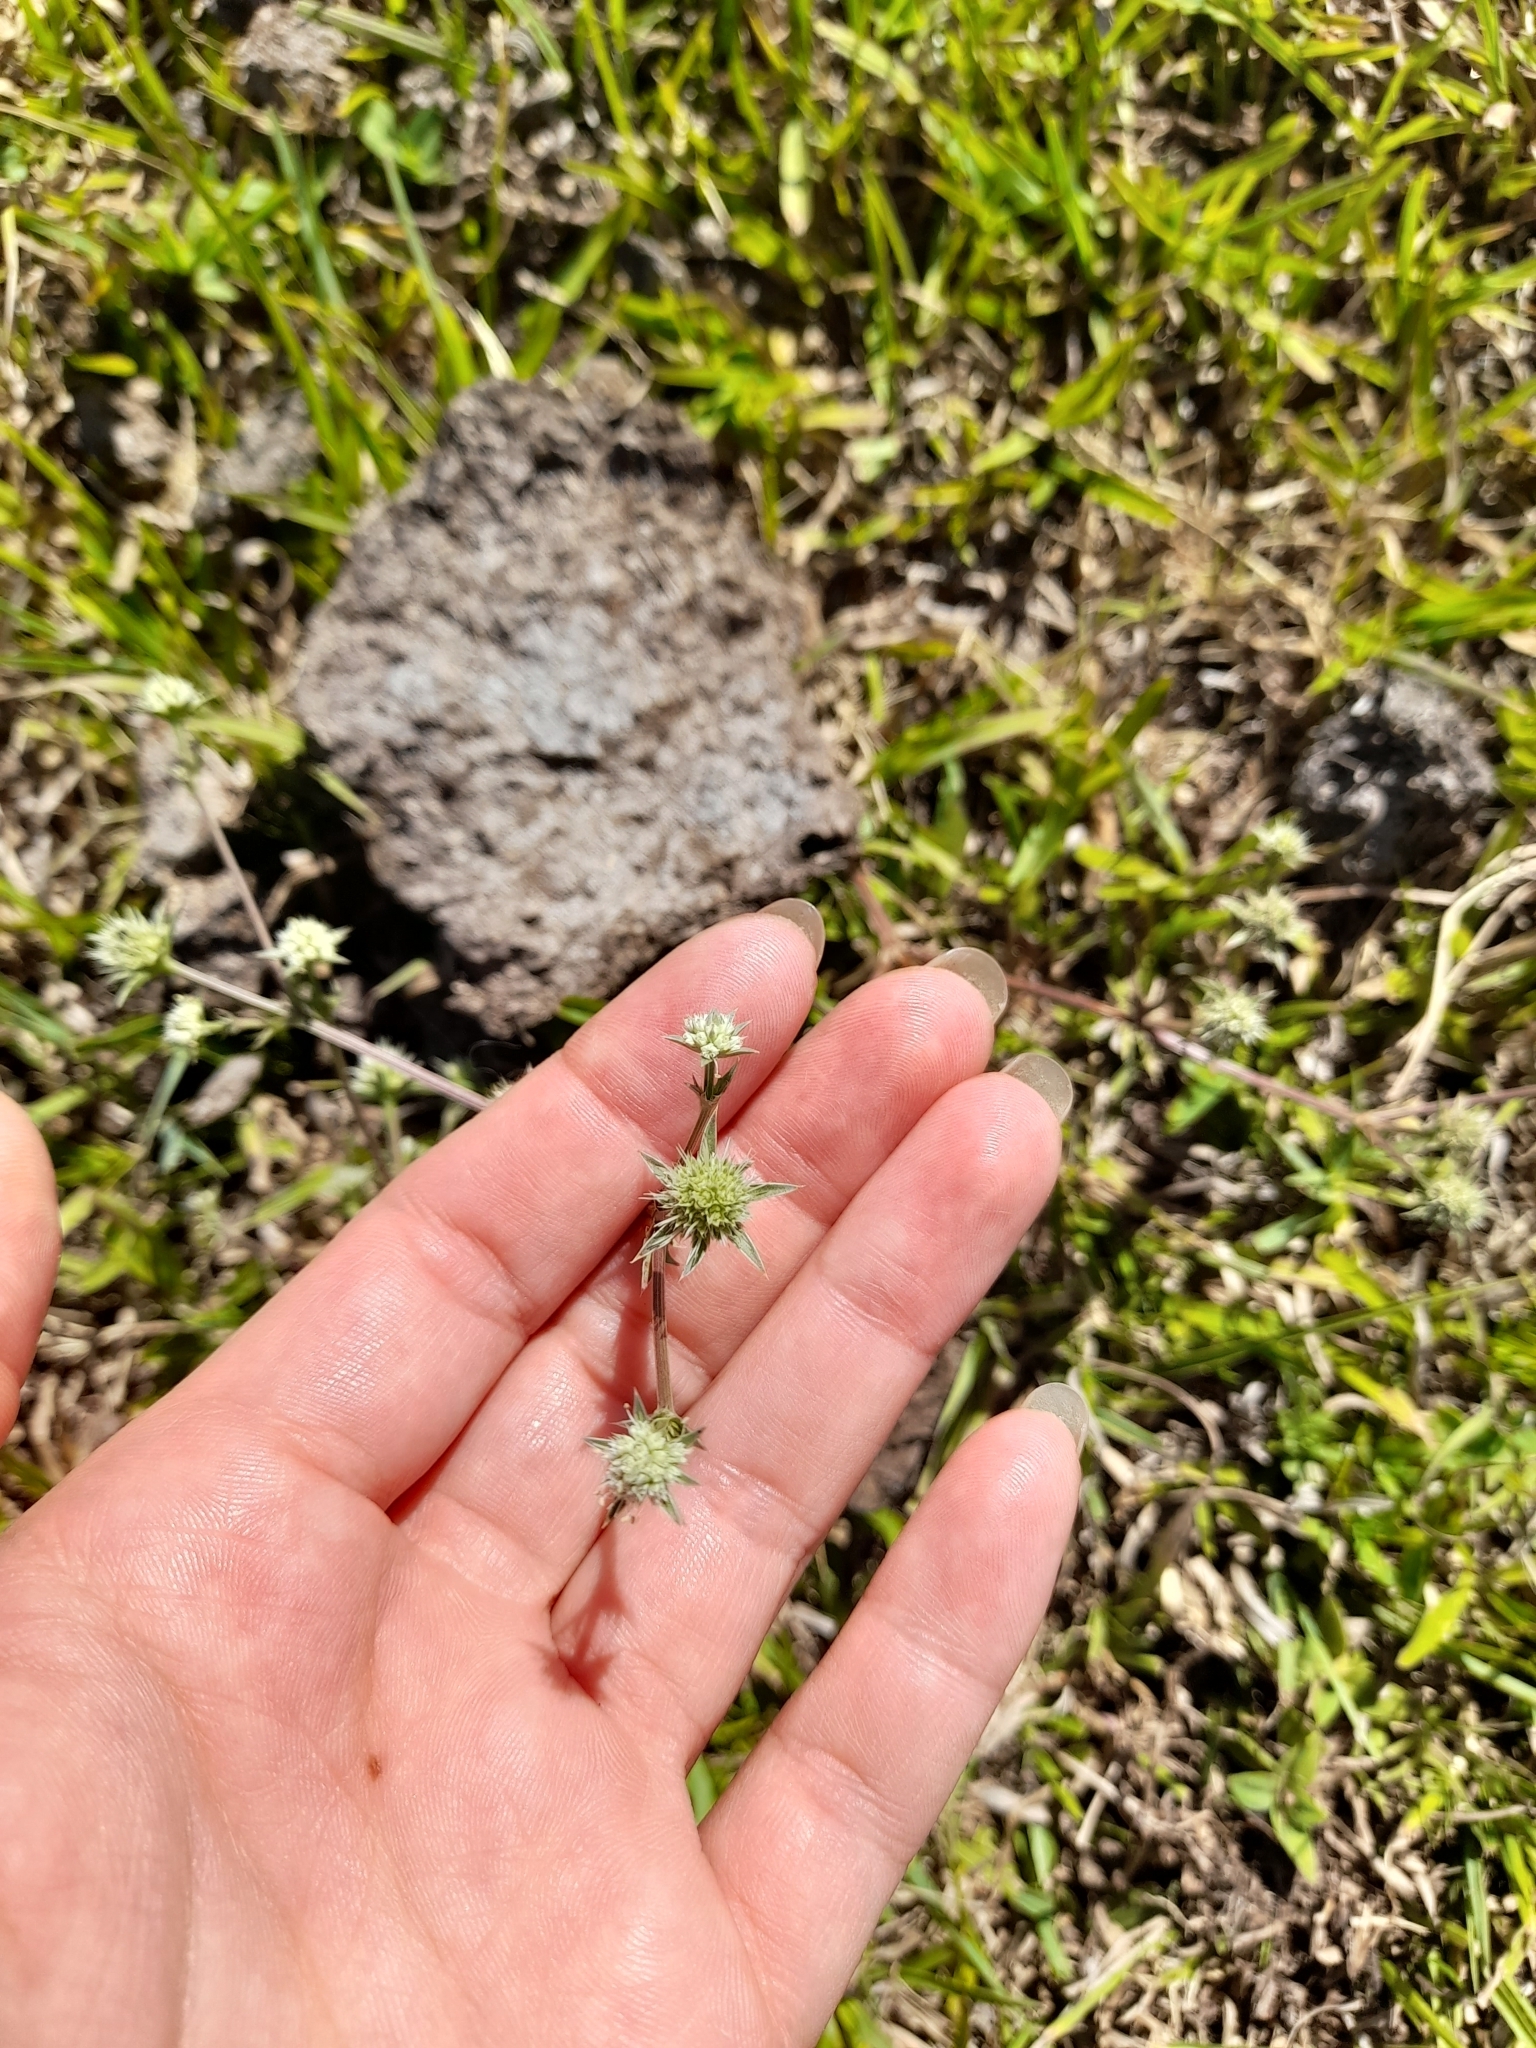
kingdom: Plantae
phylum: Tracheophyta
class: Magnoliopsida
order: Apiales
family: Apiaceae
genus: Eryngium
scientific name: Eryngium nudicaule
